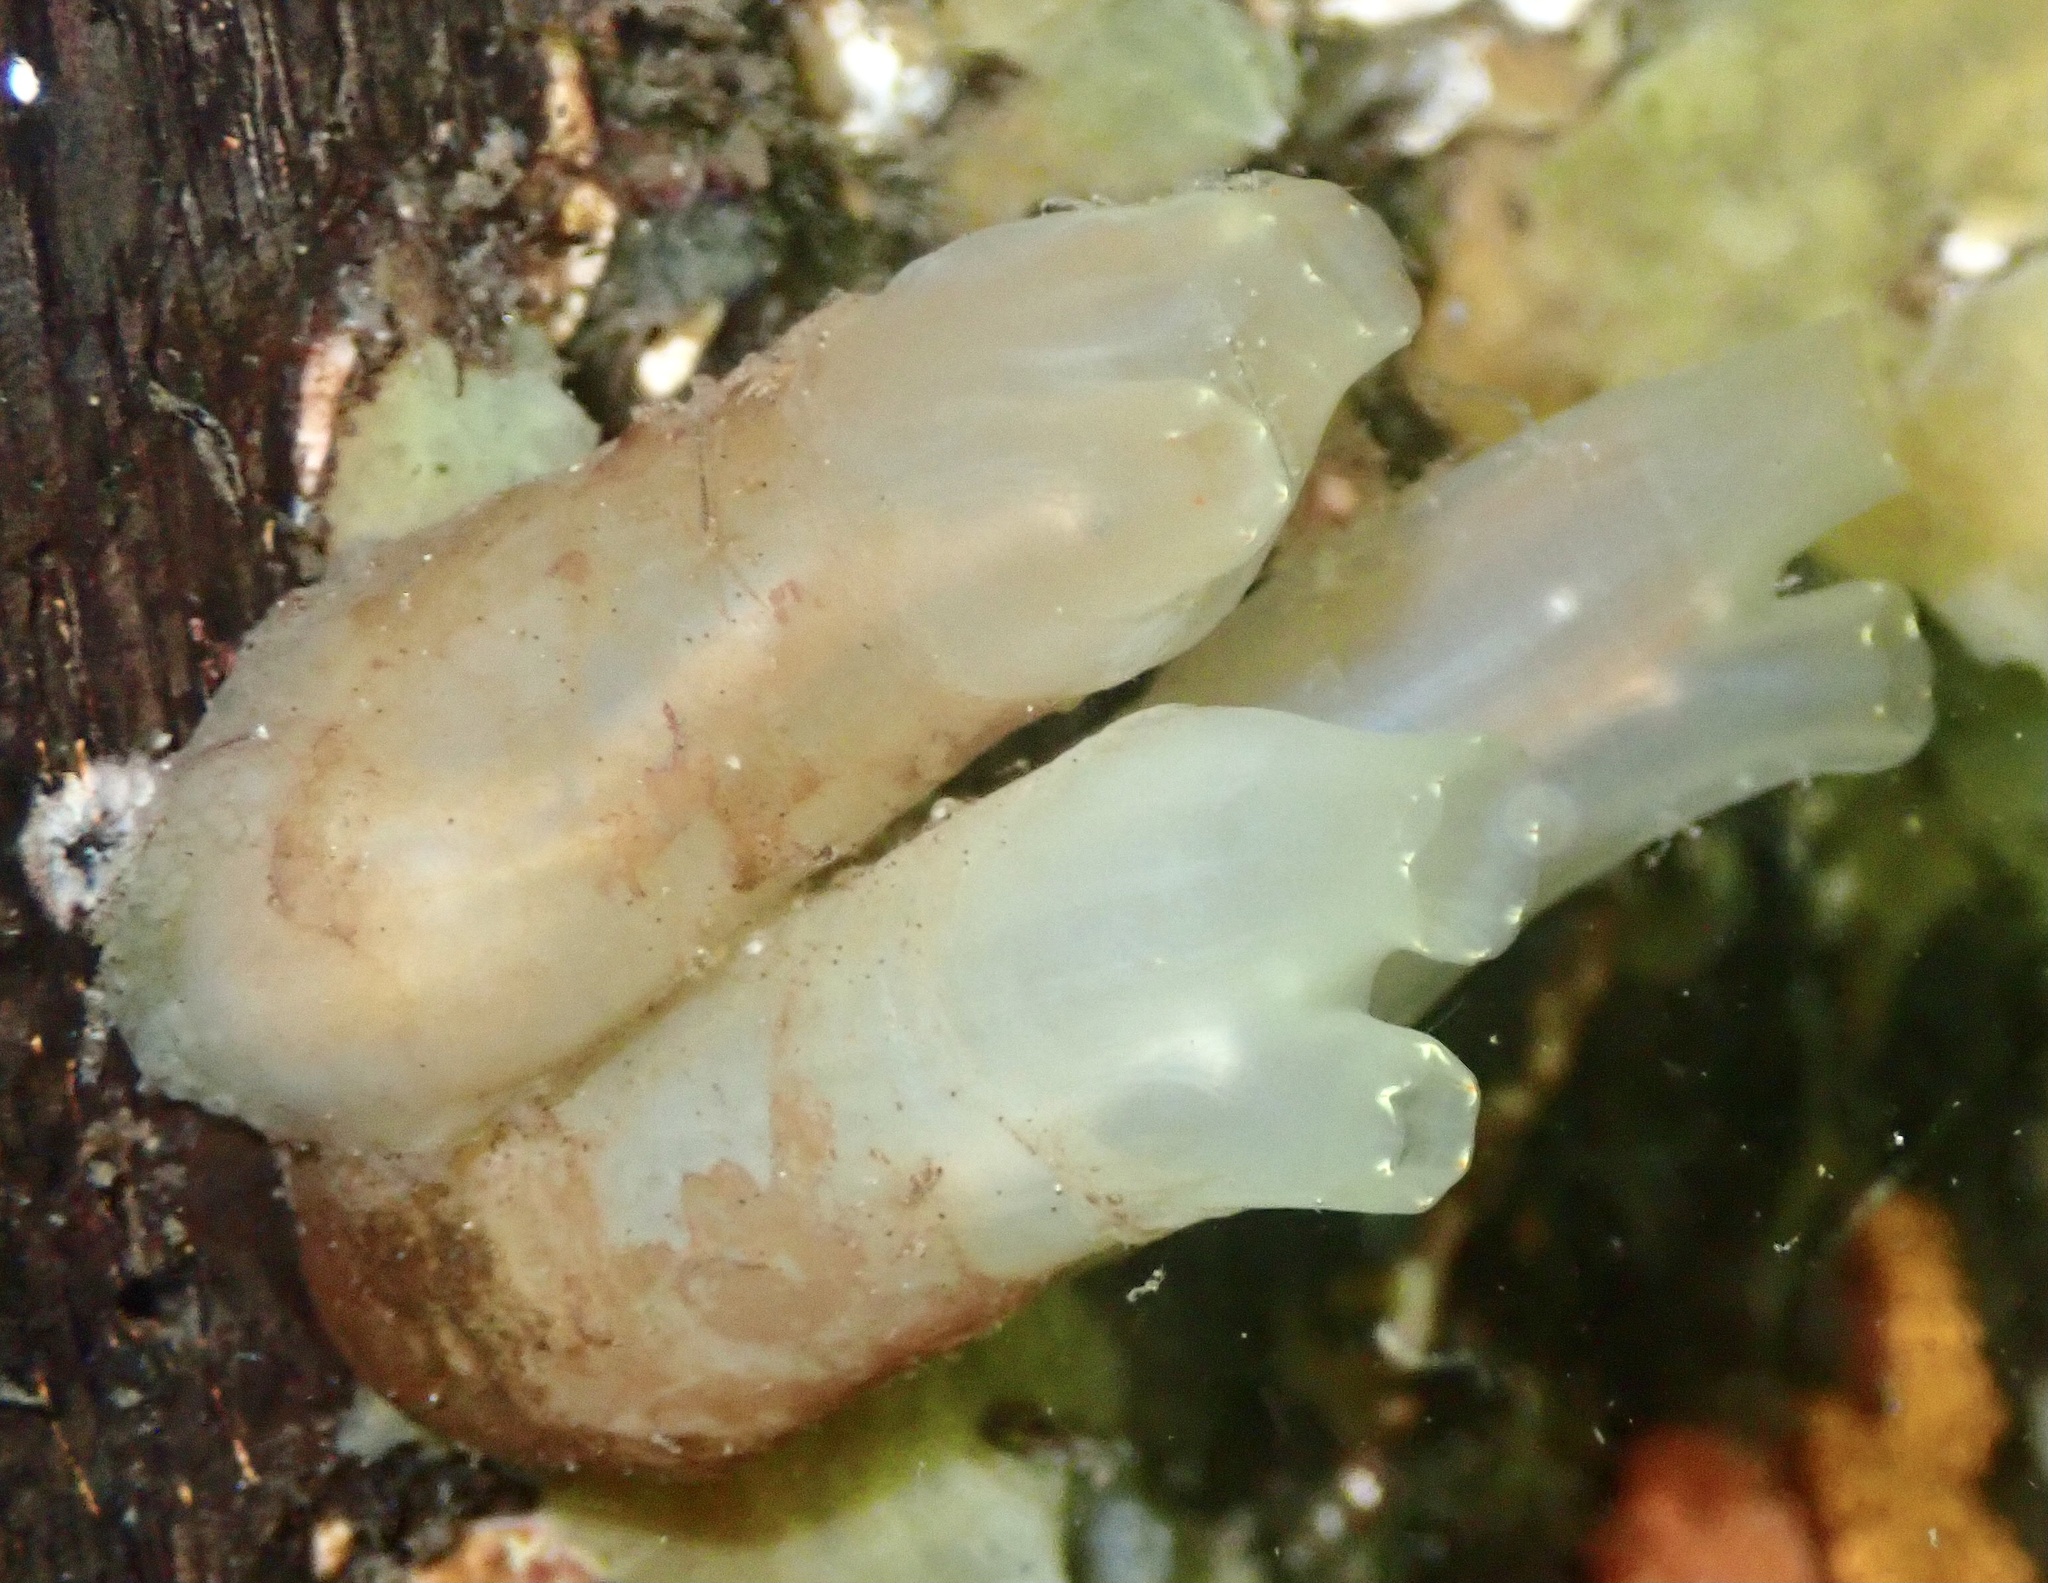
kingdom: Animalia
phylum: Chordata
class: Ascidiacea
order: Phlebobranchia
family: Cionidae
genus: Ciona
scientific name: Ciona intestinalis
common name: Vase tunicate
